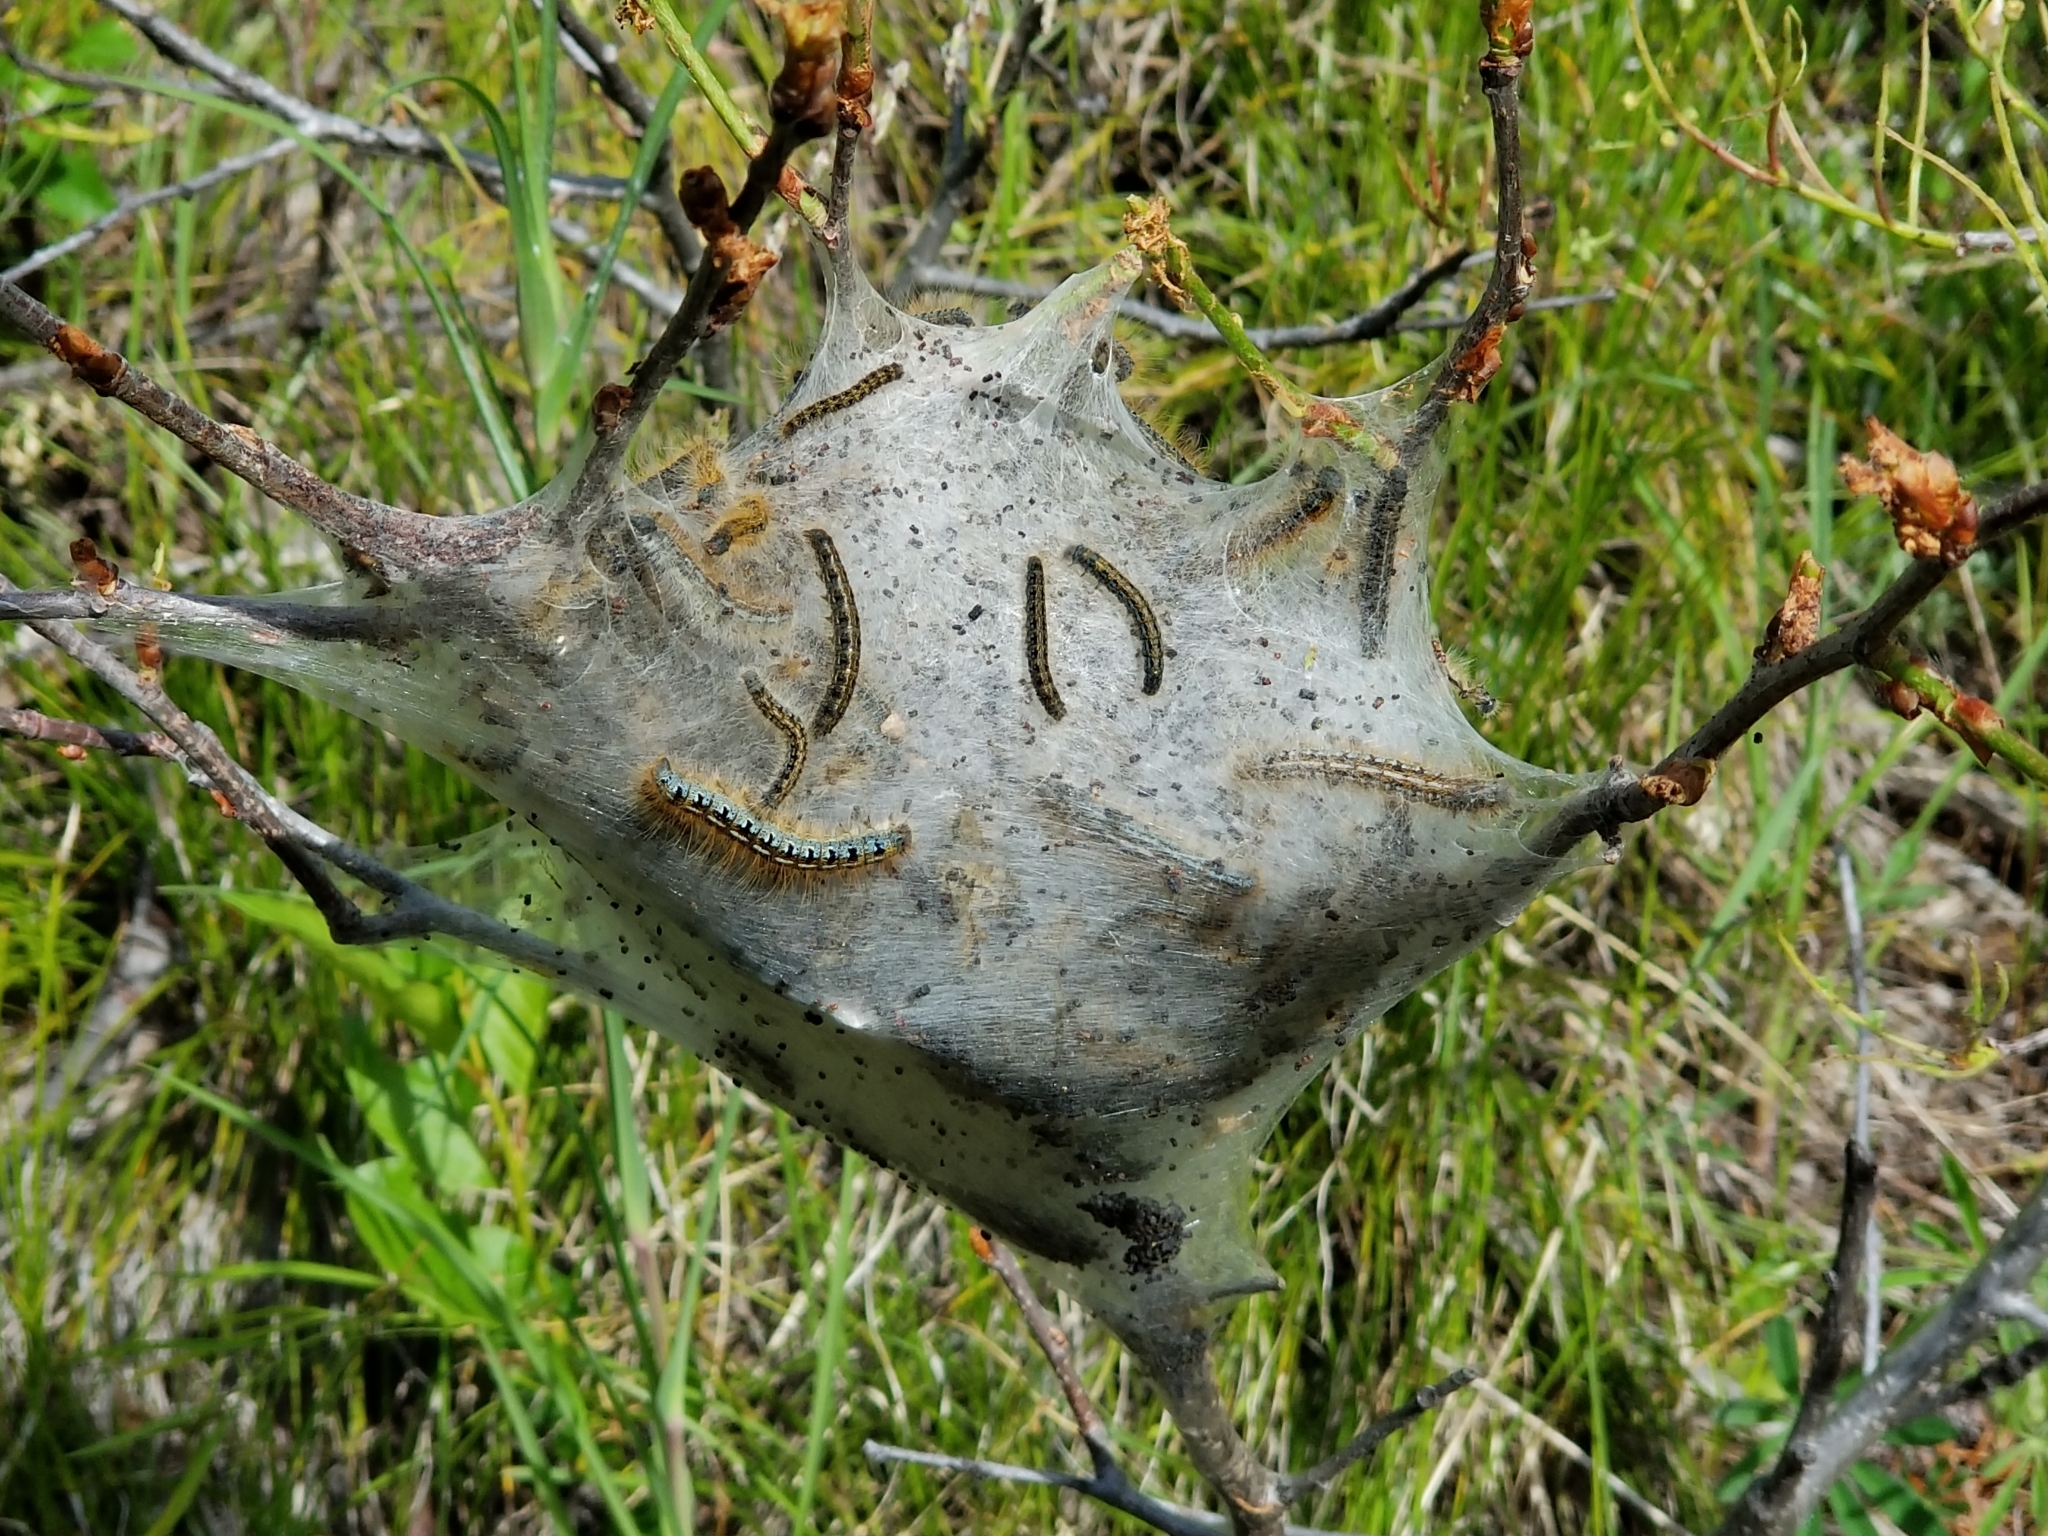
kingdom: Animalia
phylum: Arthropoda
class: Insecta
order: Lepidoptera
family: Lasiocampidae
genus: Malacosoma
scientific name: Malacosoma californica
